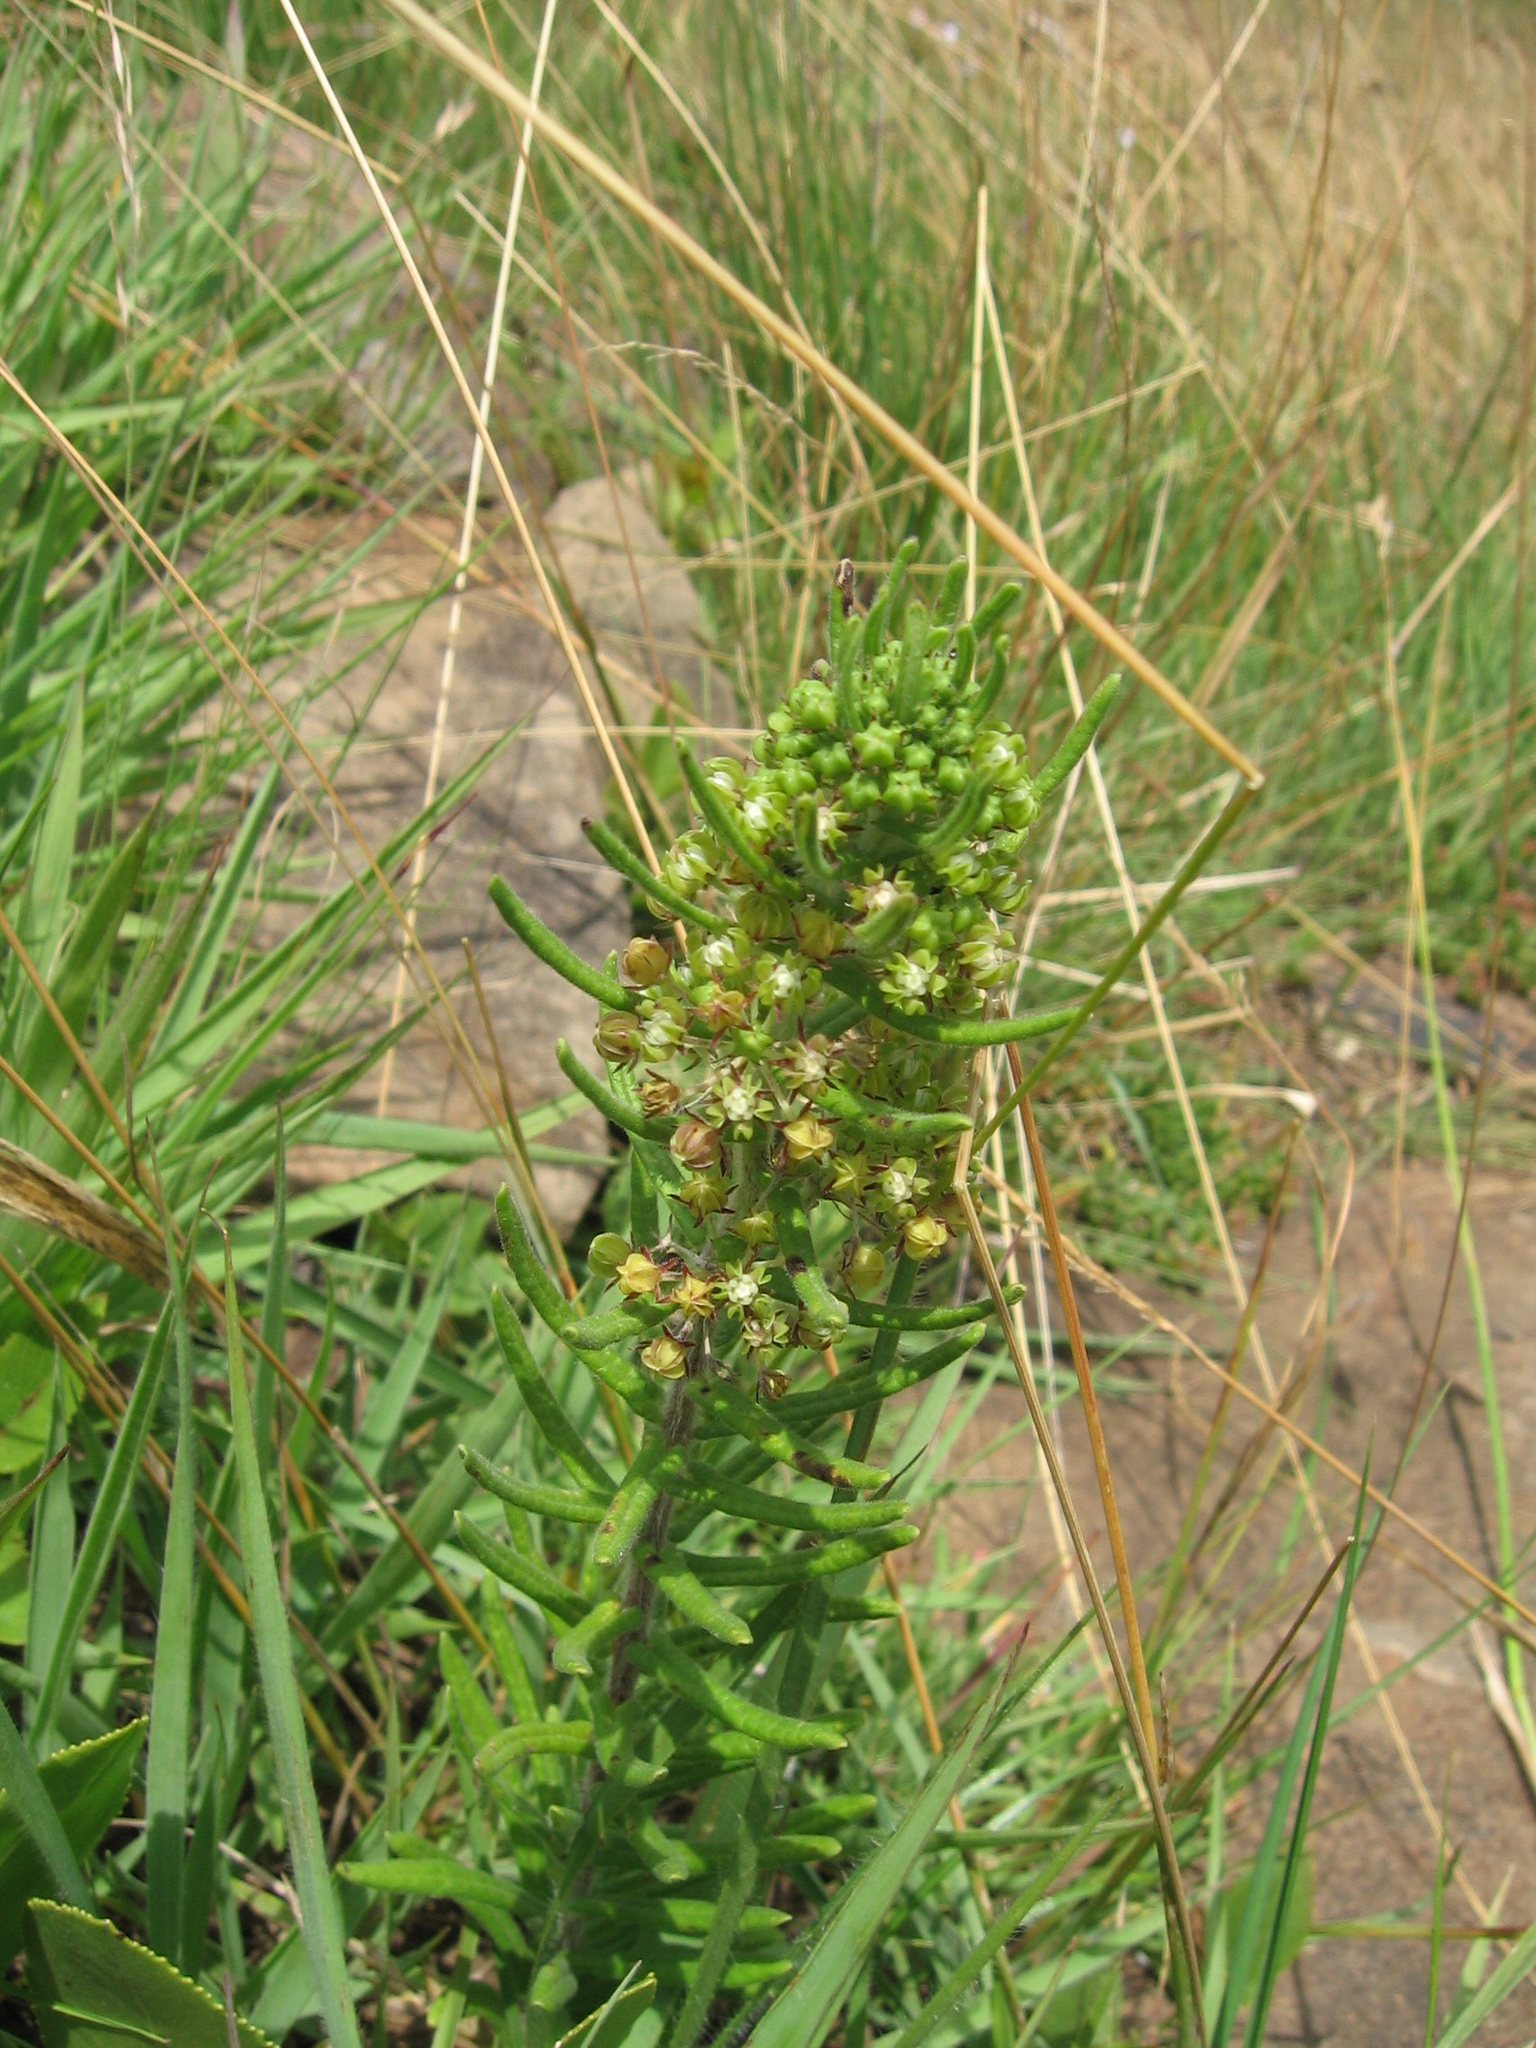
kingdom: Plantae
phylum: Tracheophyta
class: Magnoliopsida
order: Gentianales
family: Apocynaceae
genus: Schizoglossum
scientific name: Schizoglossum bidens
